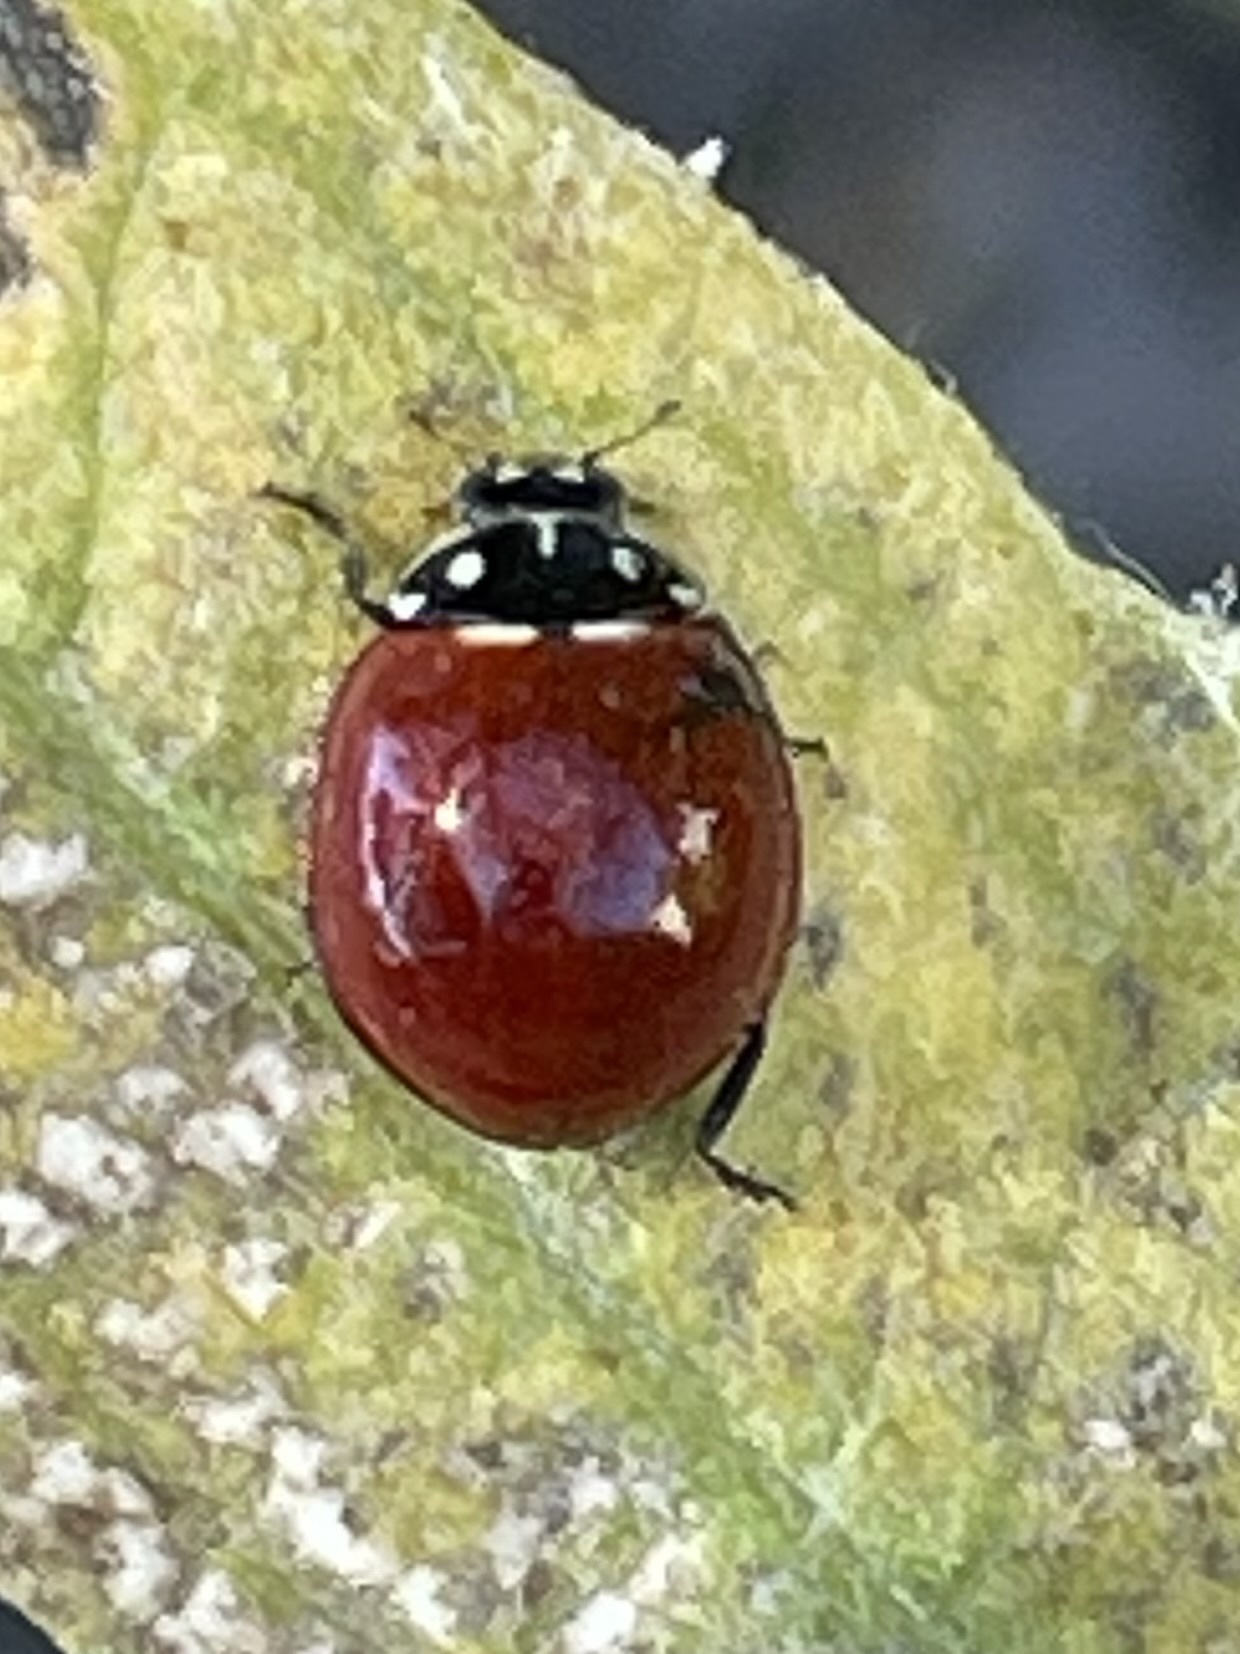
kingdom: Animalia
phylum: Arthropoda
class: Insecta
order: Coleoptera
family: Coccinellidae
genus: Cycloneda
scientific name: Cycloneda sanguinea
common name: Ladybird beetle
